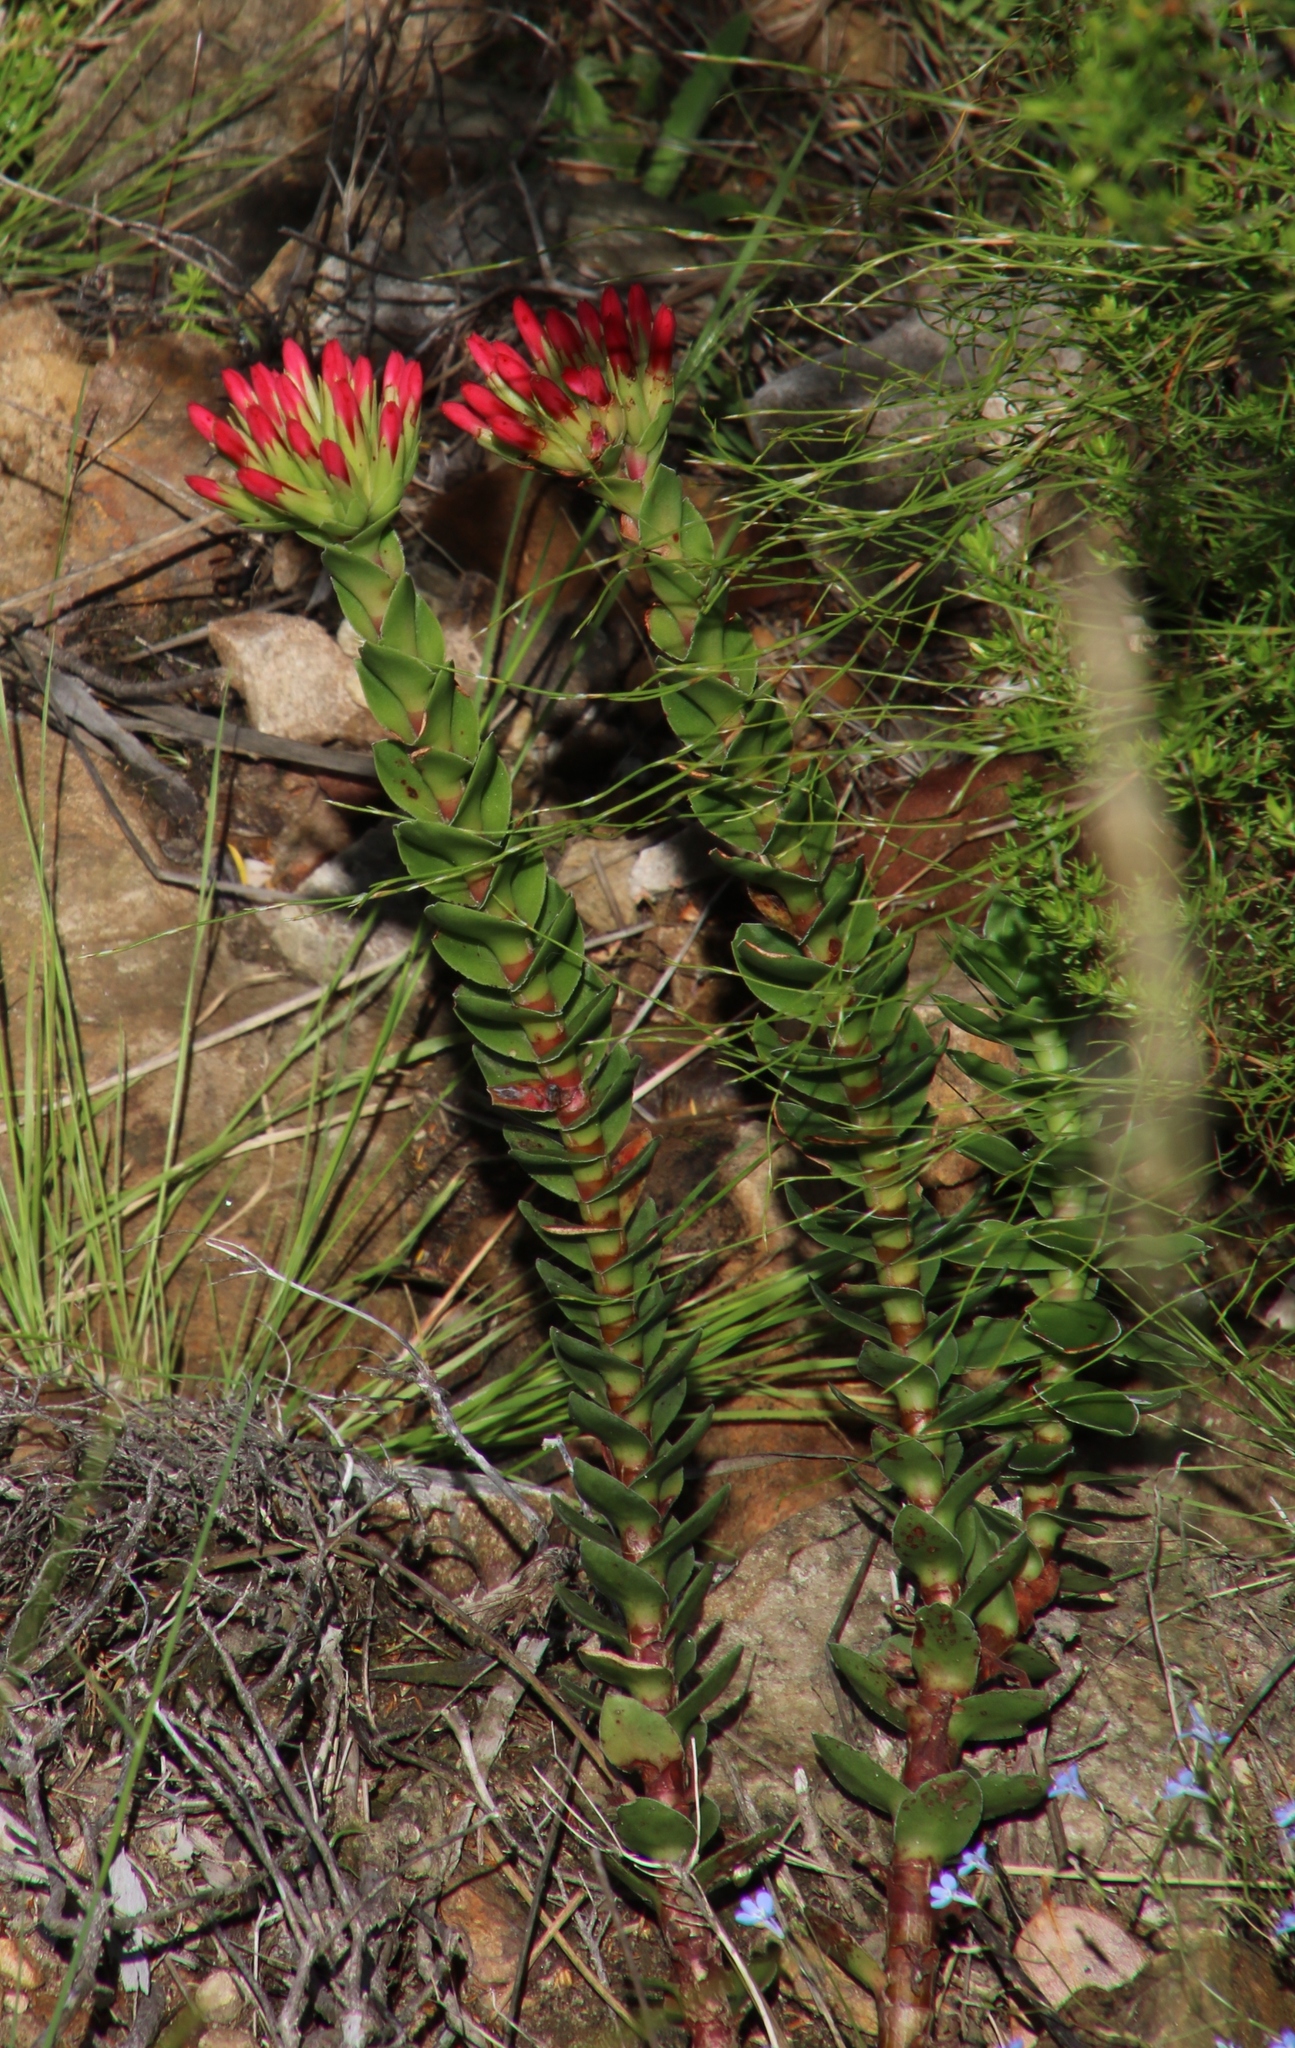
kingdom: Plantae
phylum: Tracheophyta
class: Magnoliopsida
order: Saxifragales
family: Crassulaceae
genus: Crassula
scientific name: Crassula coccinea
